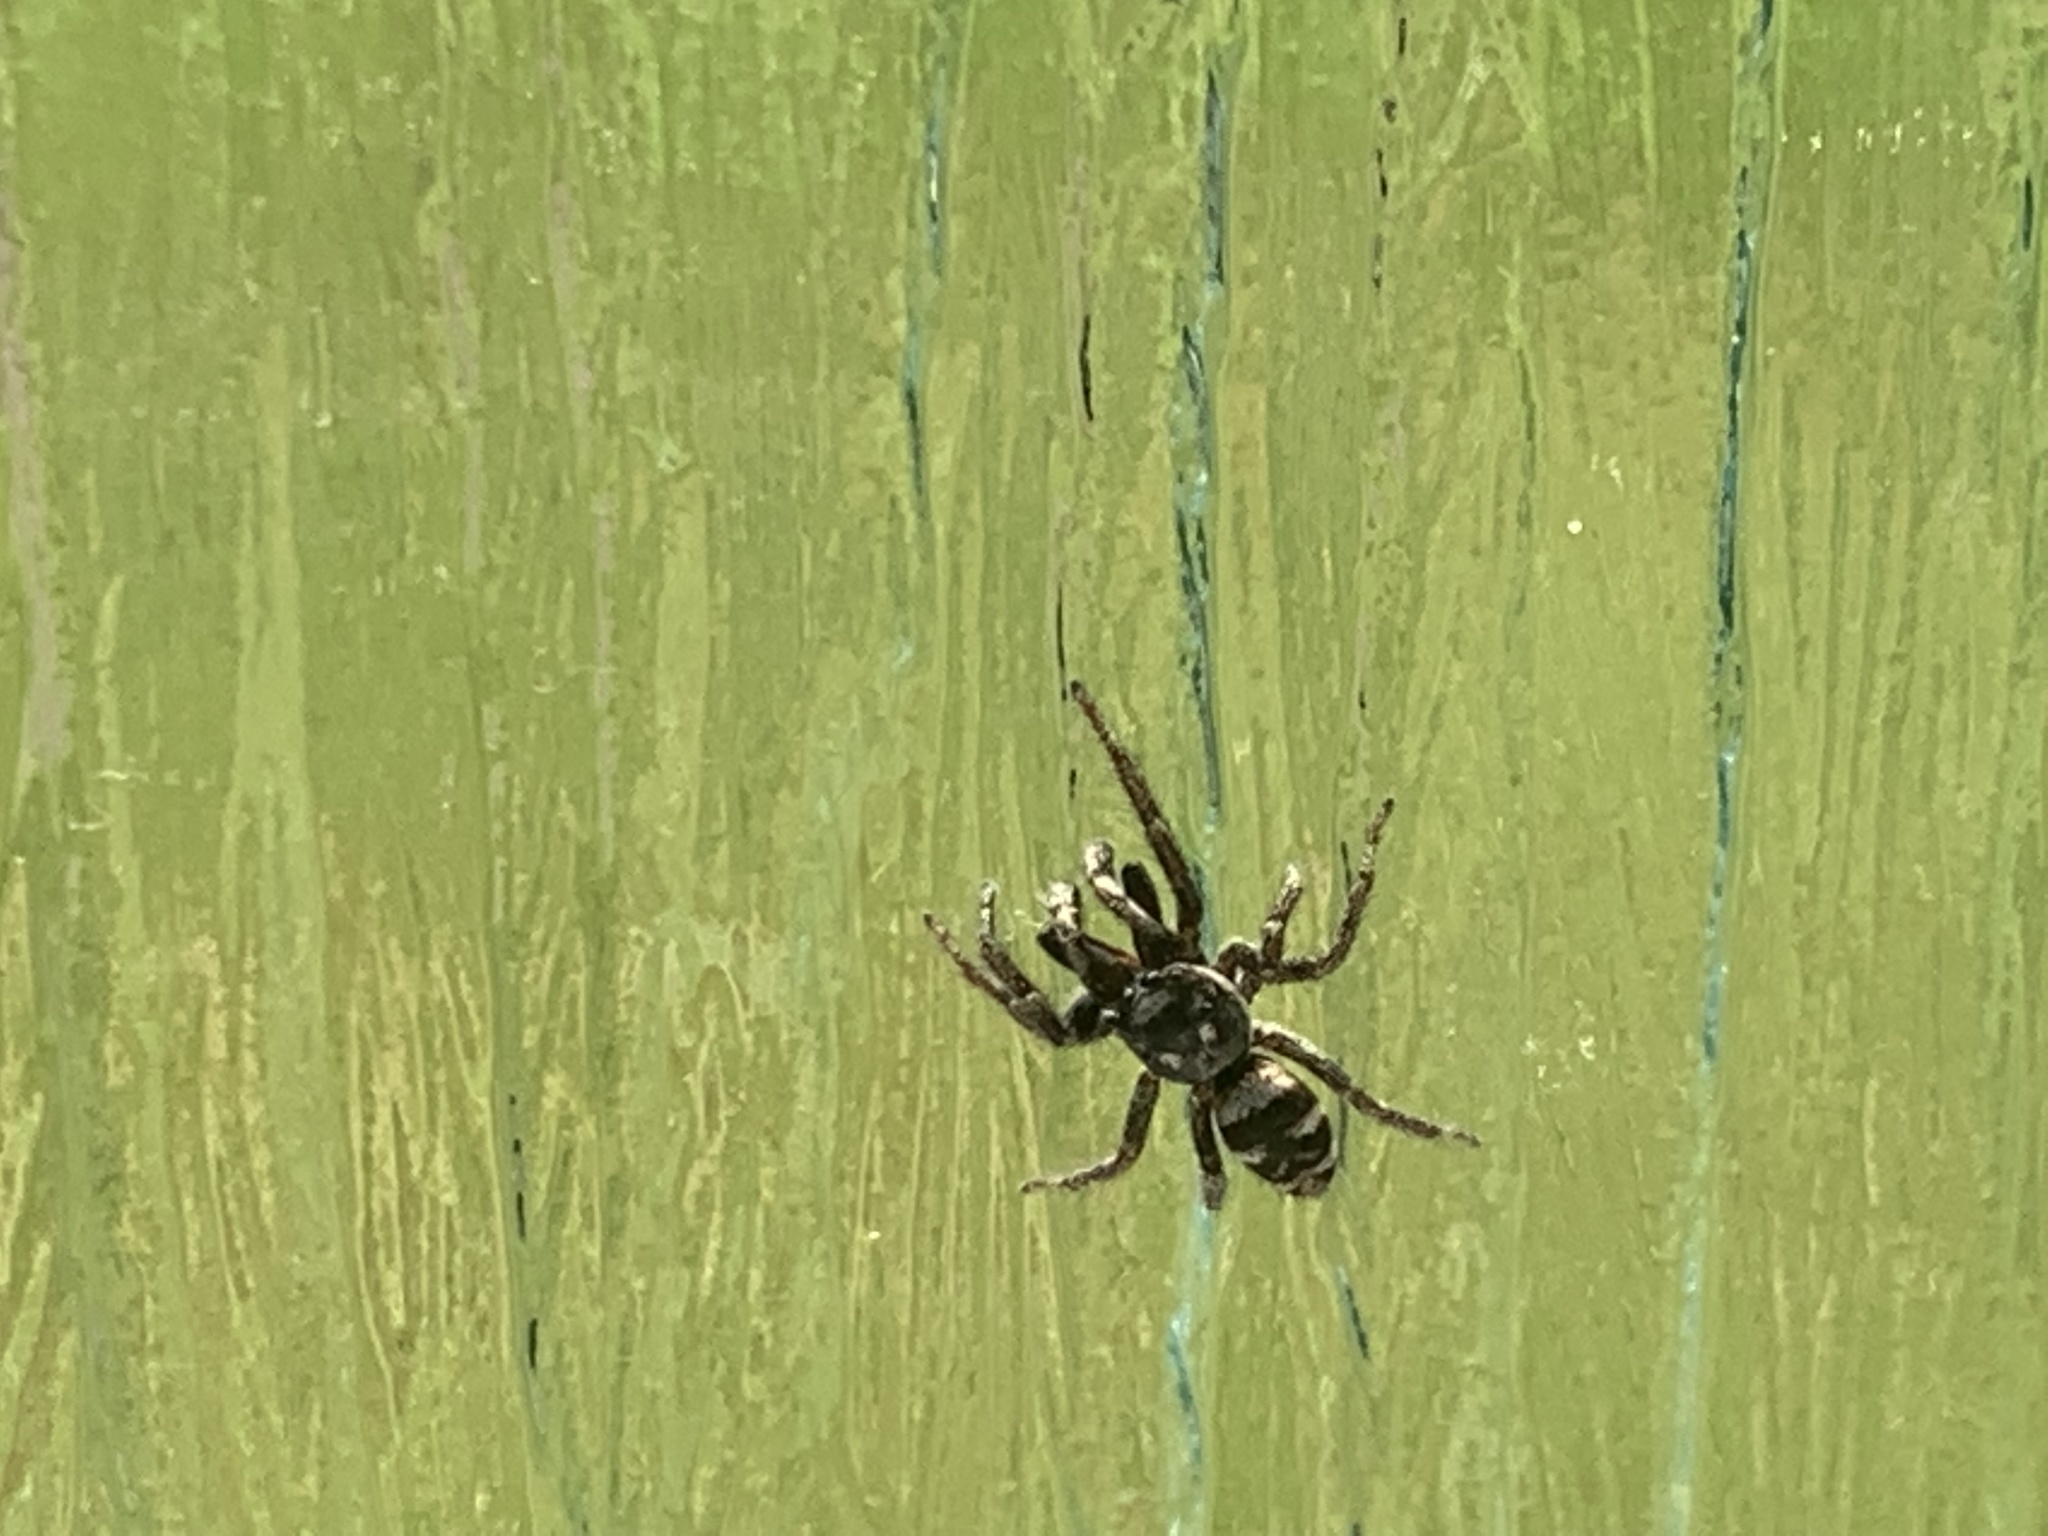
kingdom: Animalia
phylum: Arthropoda
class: Arachnida
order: Araneae
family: Salticidae
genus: Salticus
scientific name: Salticus scenicus
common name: Zebra jumper
